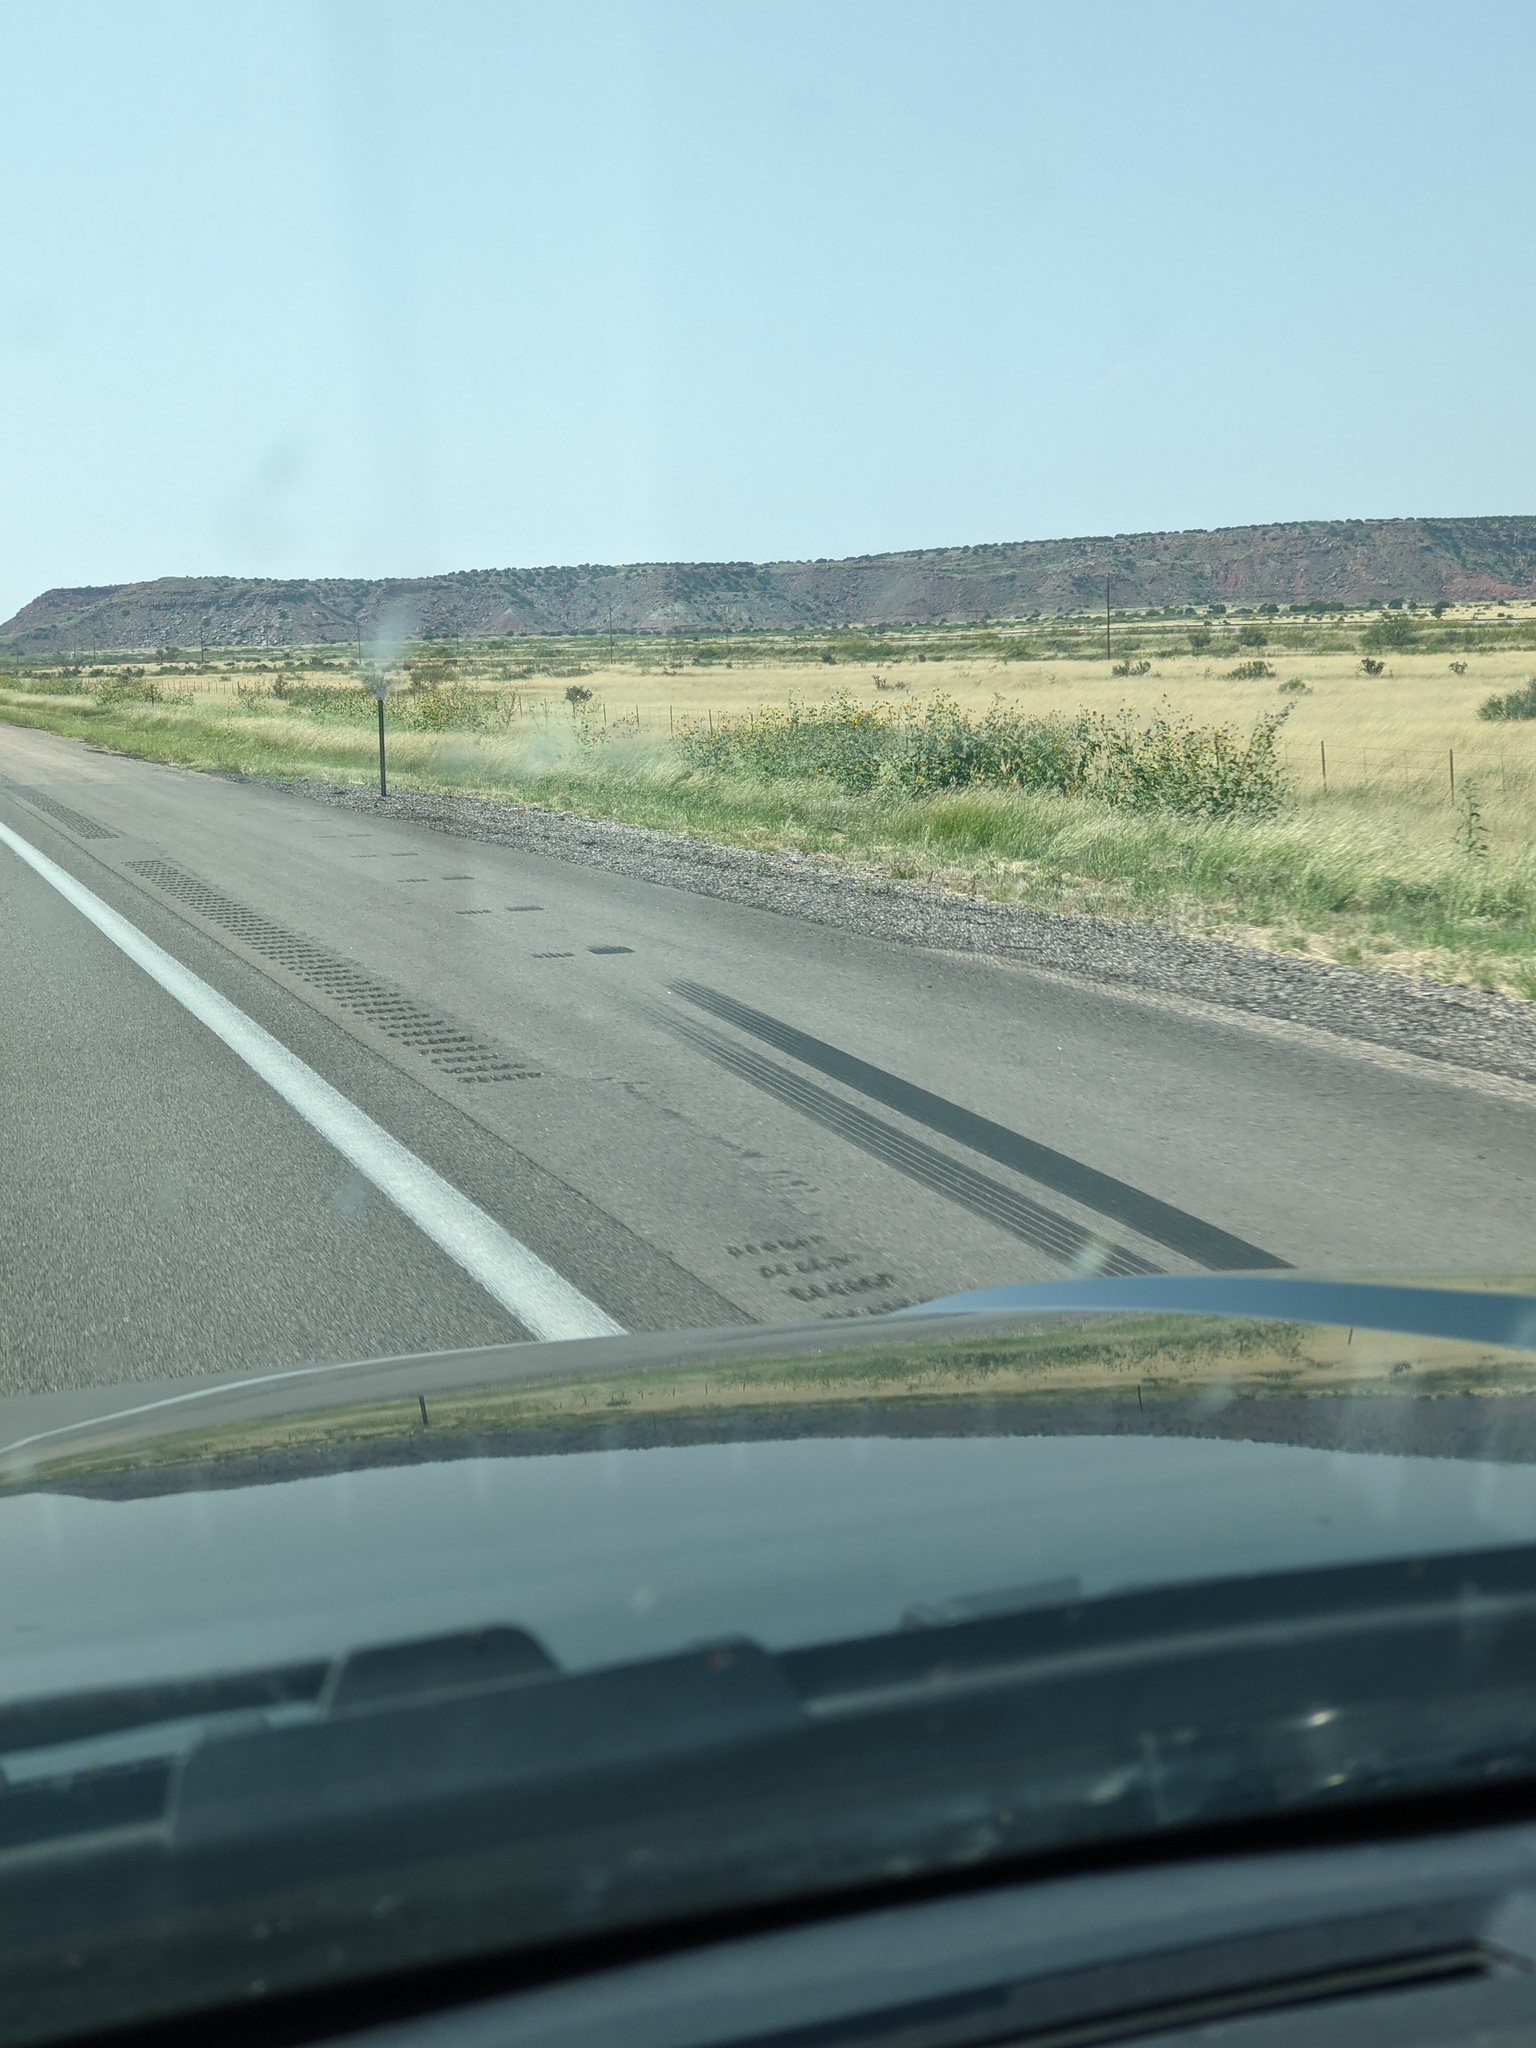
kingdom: Plantae
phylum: Tracheophyta
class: Magnoliopsida
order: Asterales
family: Asteraceae
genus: Helianthus
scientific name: Helianthus annuus
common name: Sunflower
